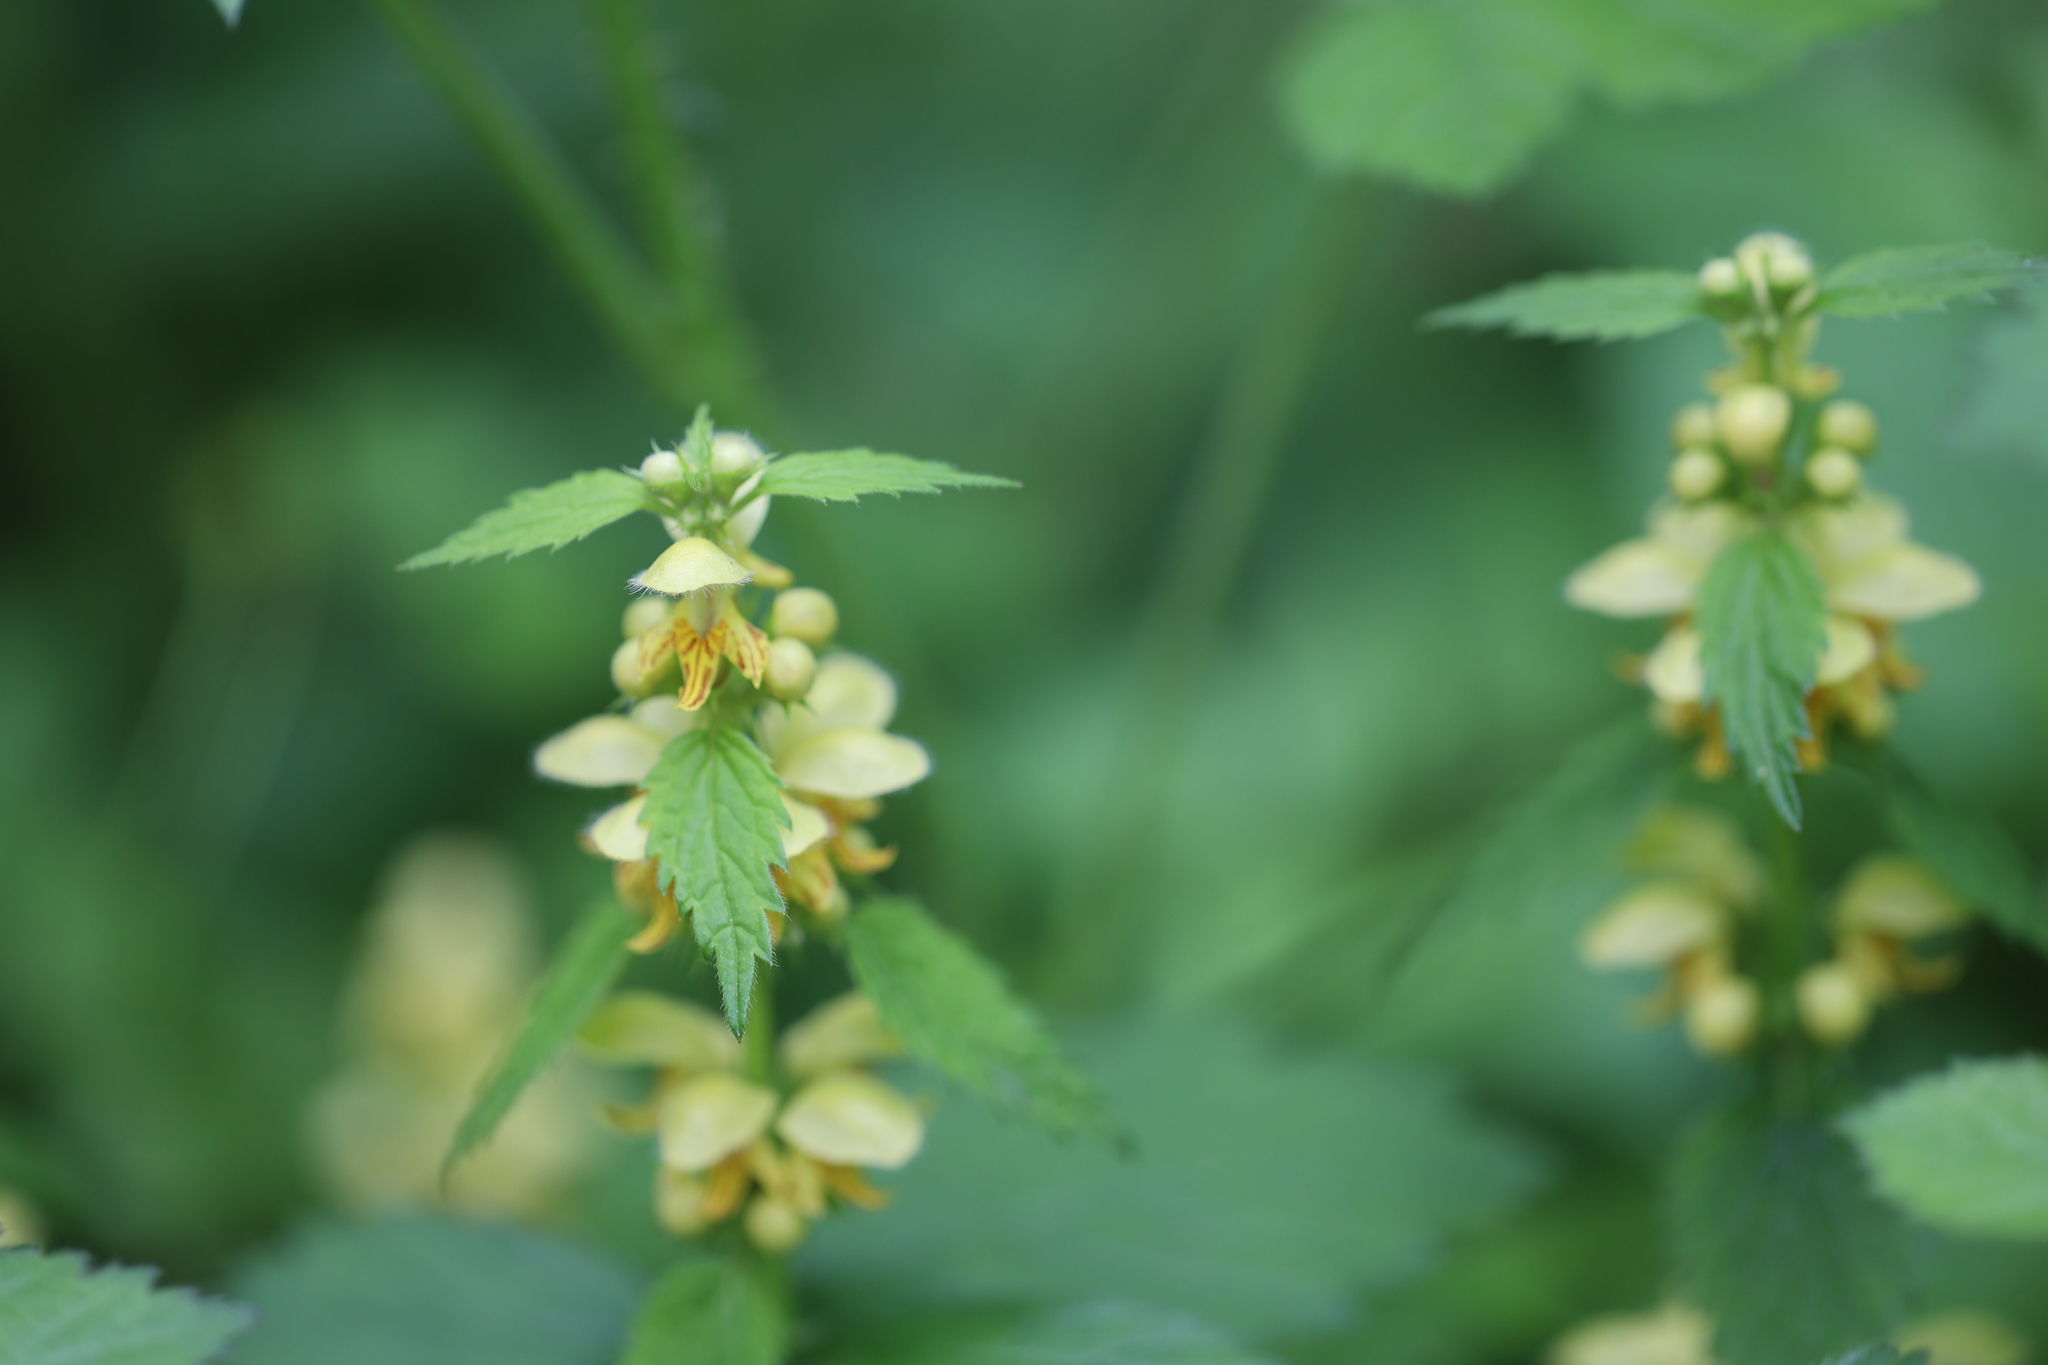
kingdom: Plantae
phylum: Tracheophyta
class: Magnoliopsida
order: Lamiales
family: Lamiaceae
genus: Lamium
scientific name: Lamium galeobdolon
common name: Yellow archangel
